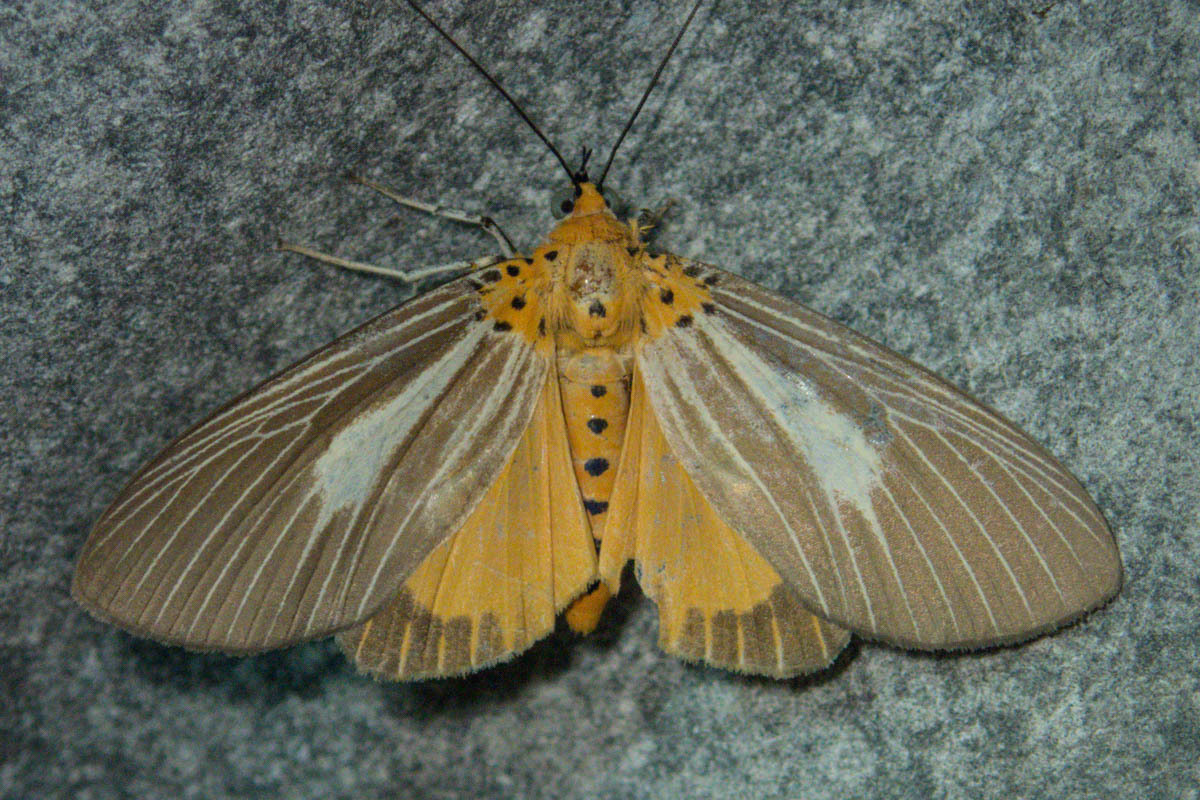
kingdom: Animalia
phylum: Arthropoda
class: Insecta
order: Lepidoptera
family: Erebidae
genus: Asota
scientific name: Asota subsimilis
